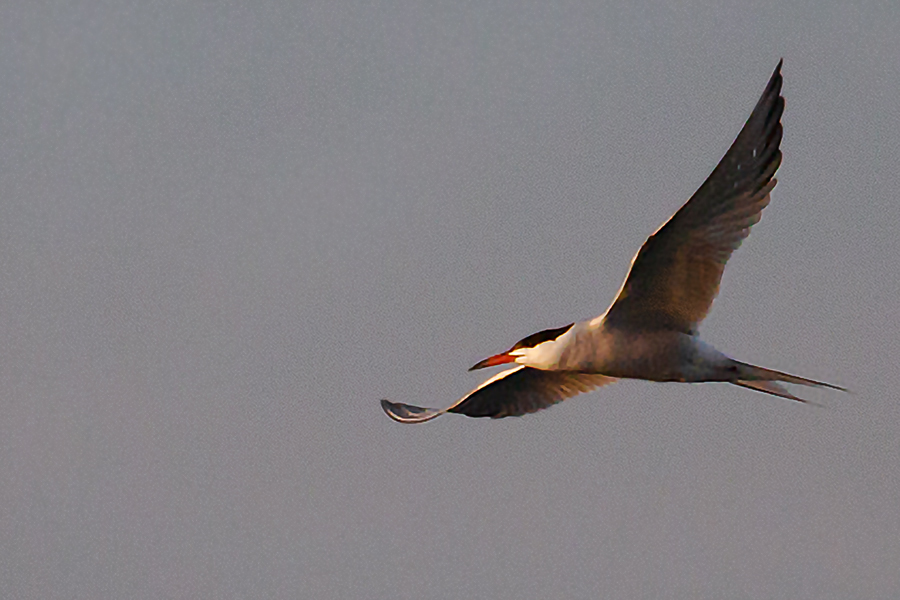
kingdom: Animalia
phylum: Chordata
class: Aves
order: Charadriiformes
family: Laridae
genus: Sterna
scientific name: Sterna hirundo
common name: Common tern
